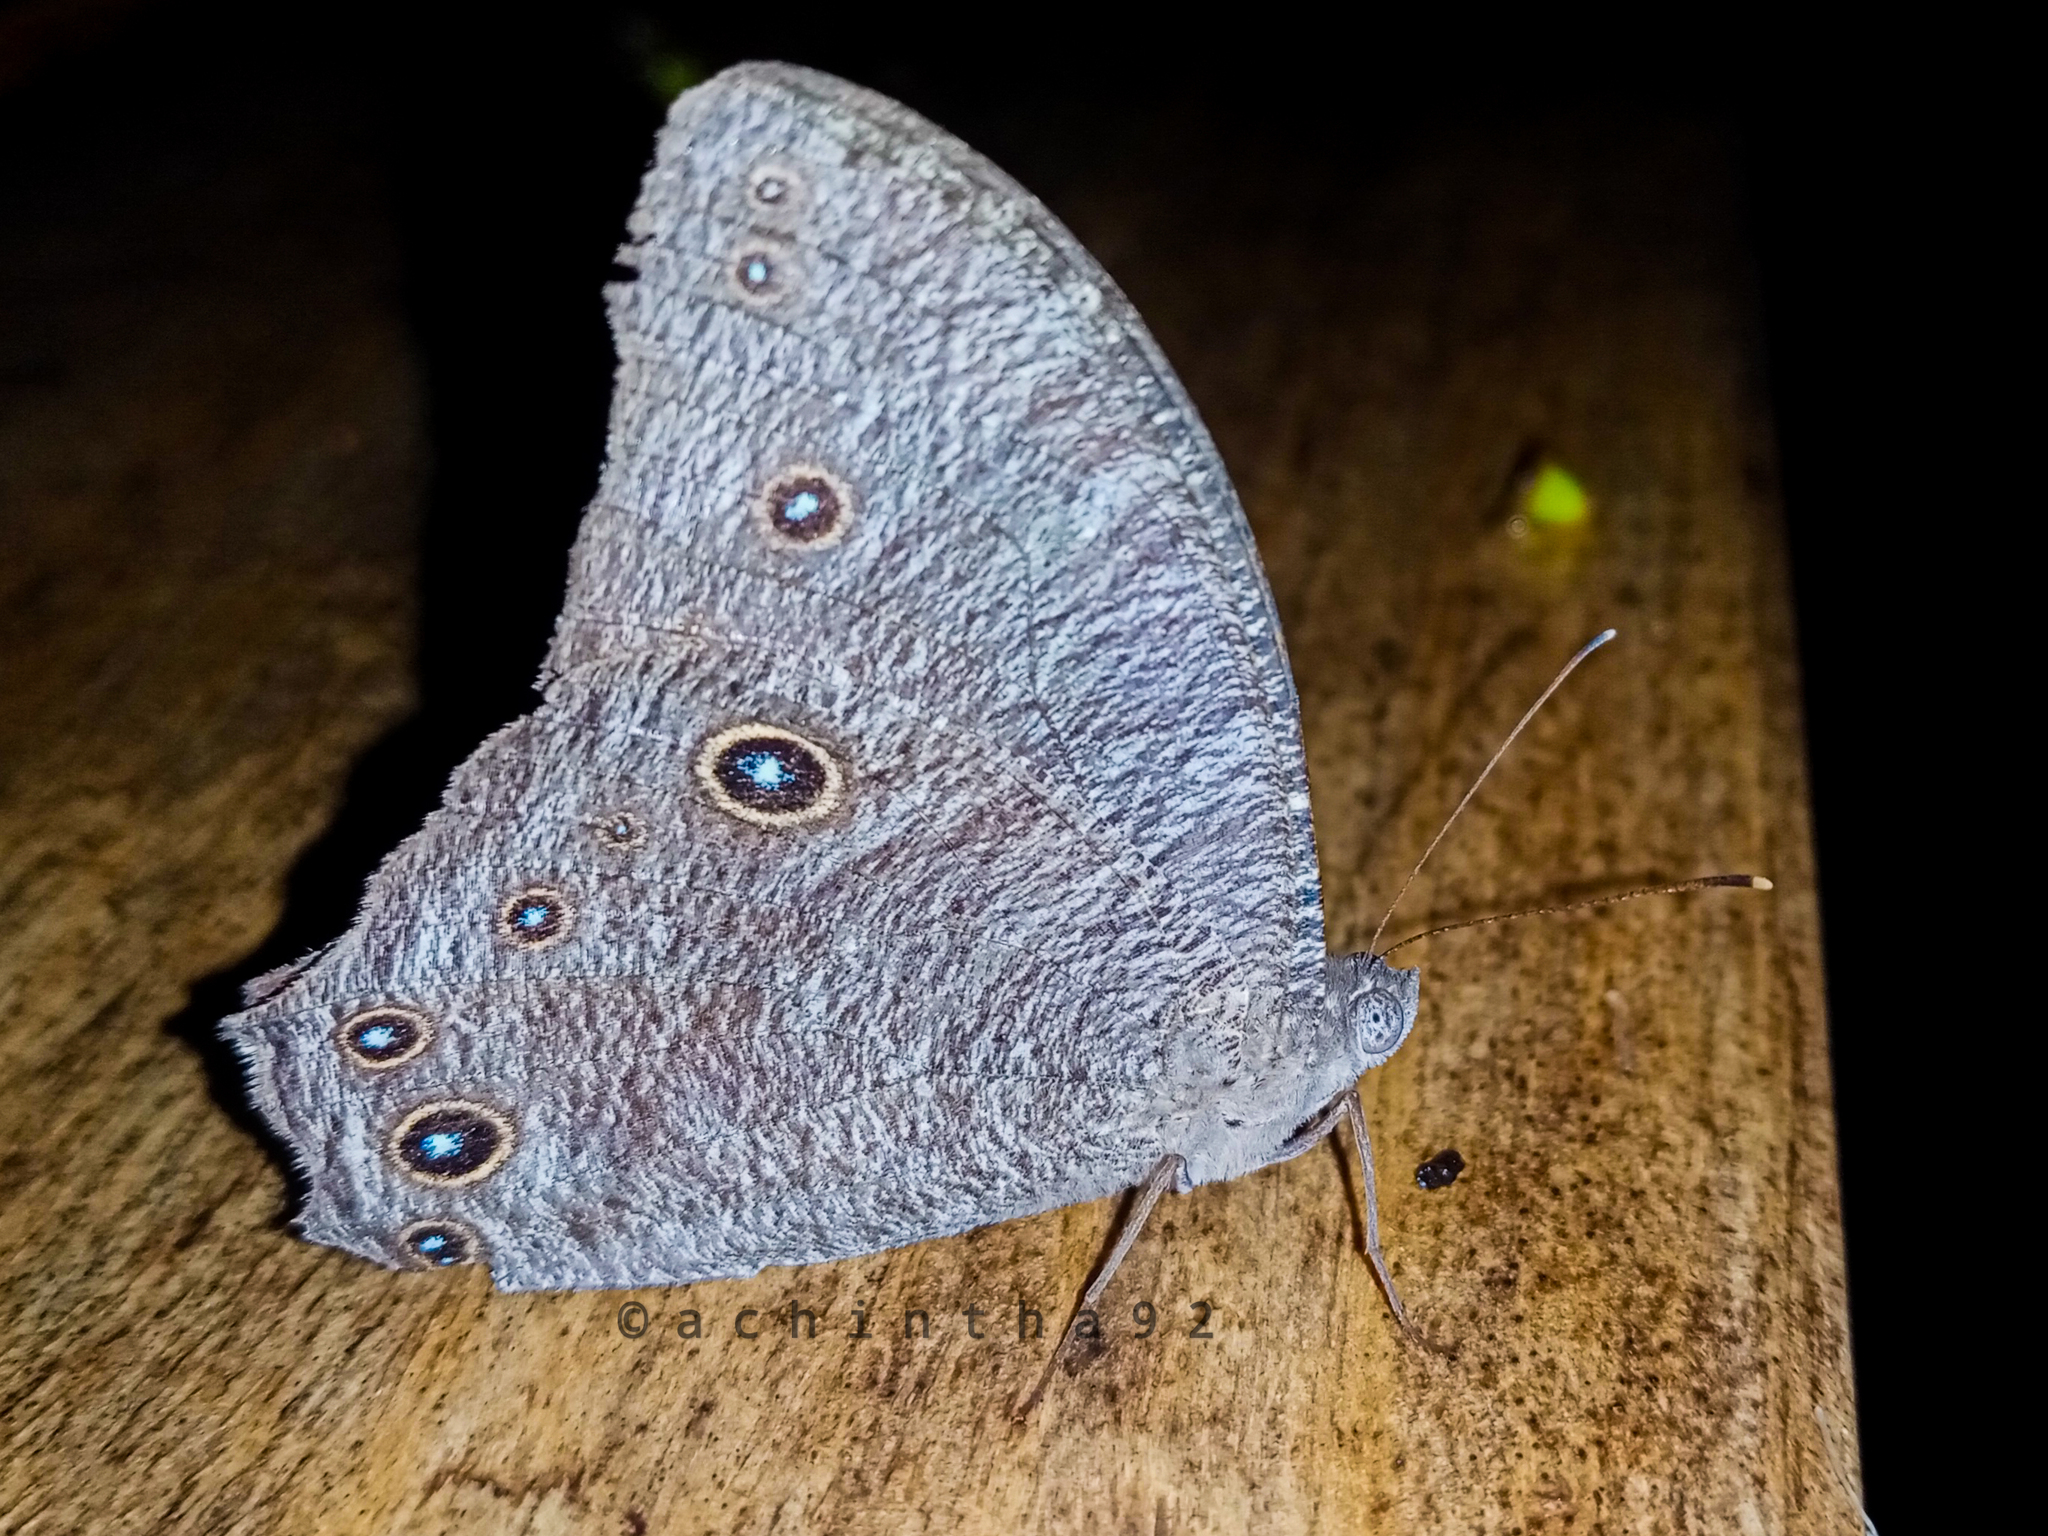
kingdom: Animalia
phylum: Arthropoda
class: Insecta
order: Lepidoptera
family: Nymphalidae
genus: Melanitis
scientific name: Melanitis leda
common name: Twilight brown
